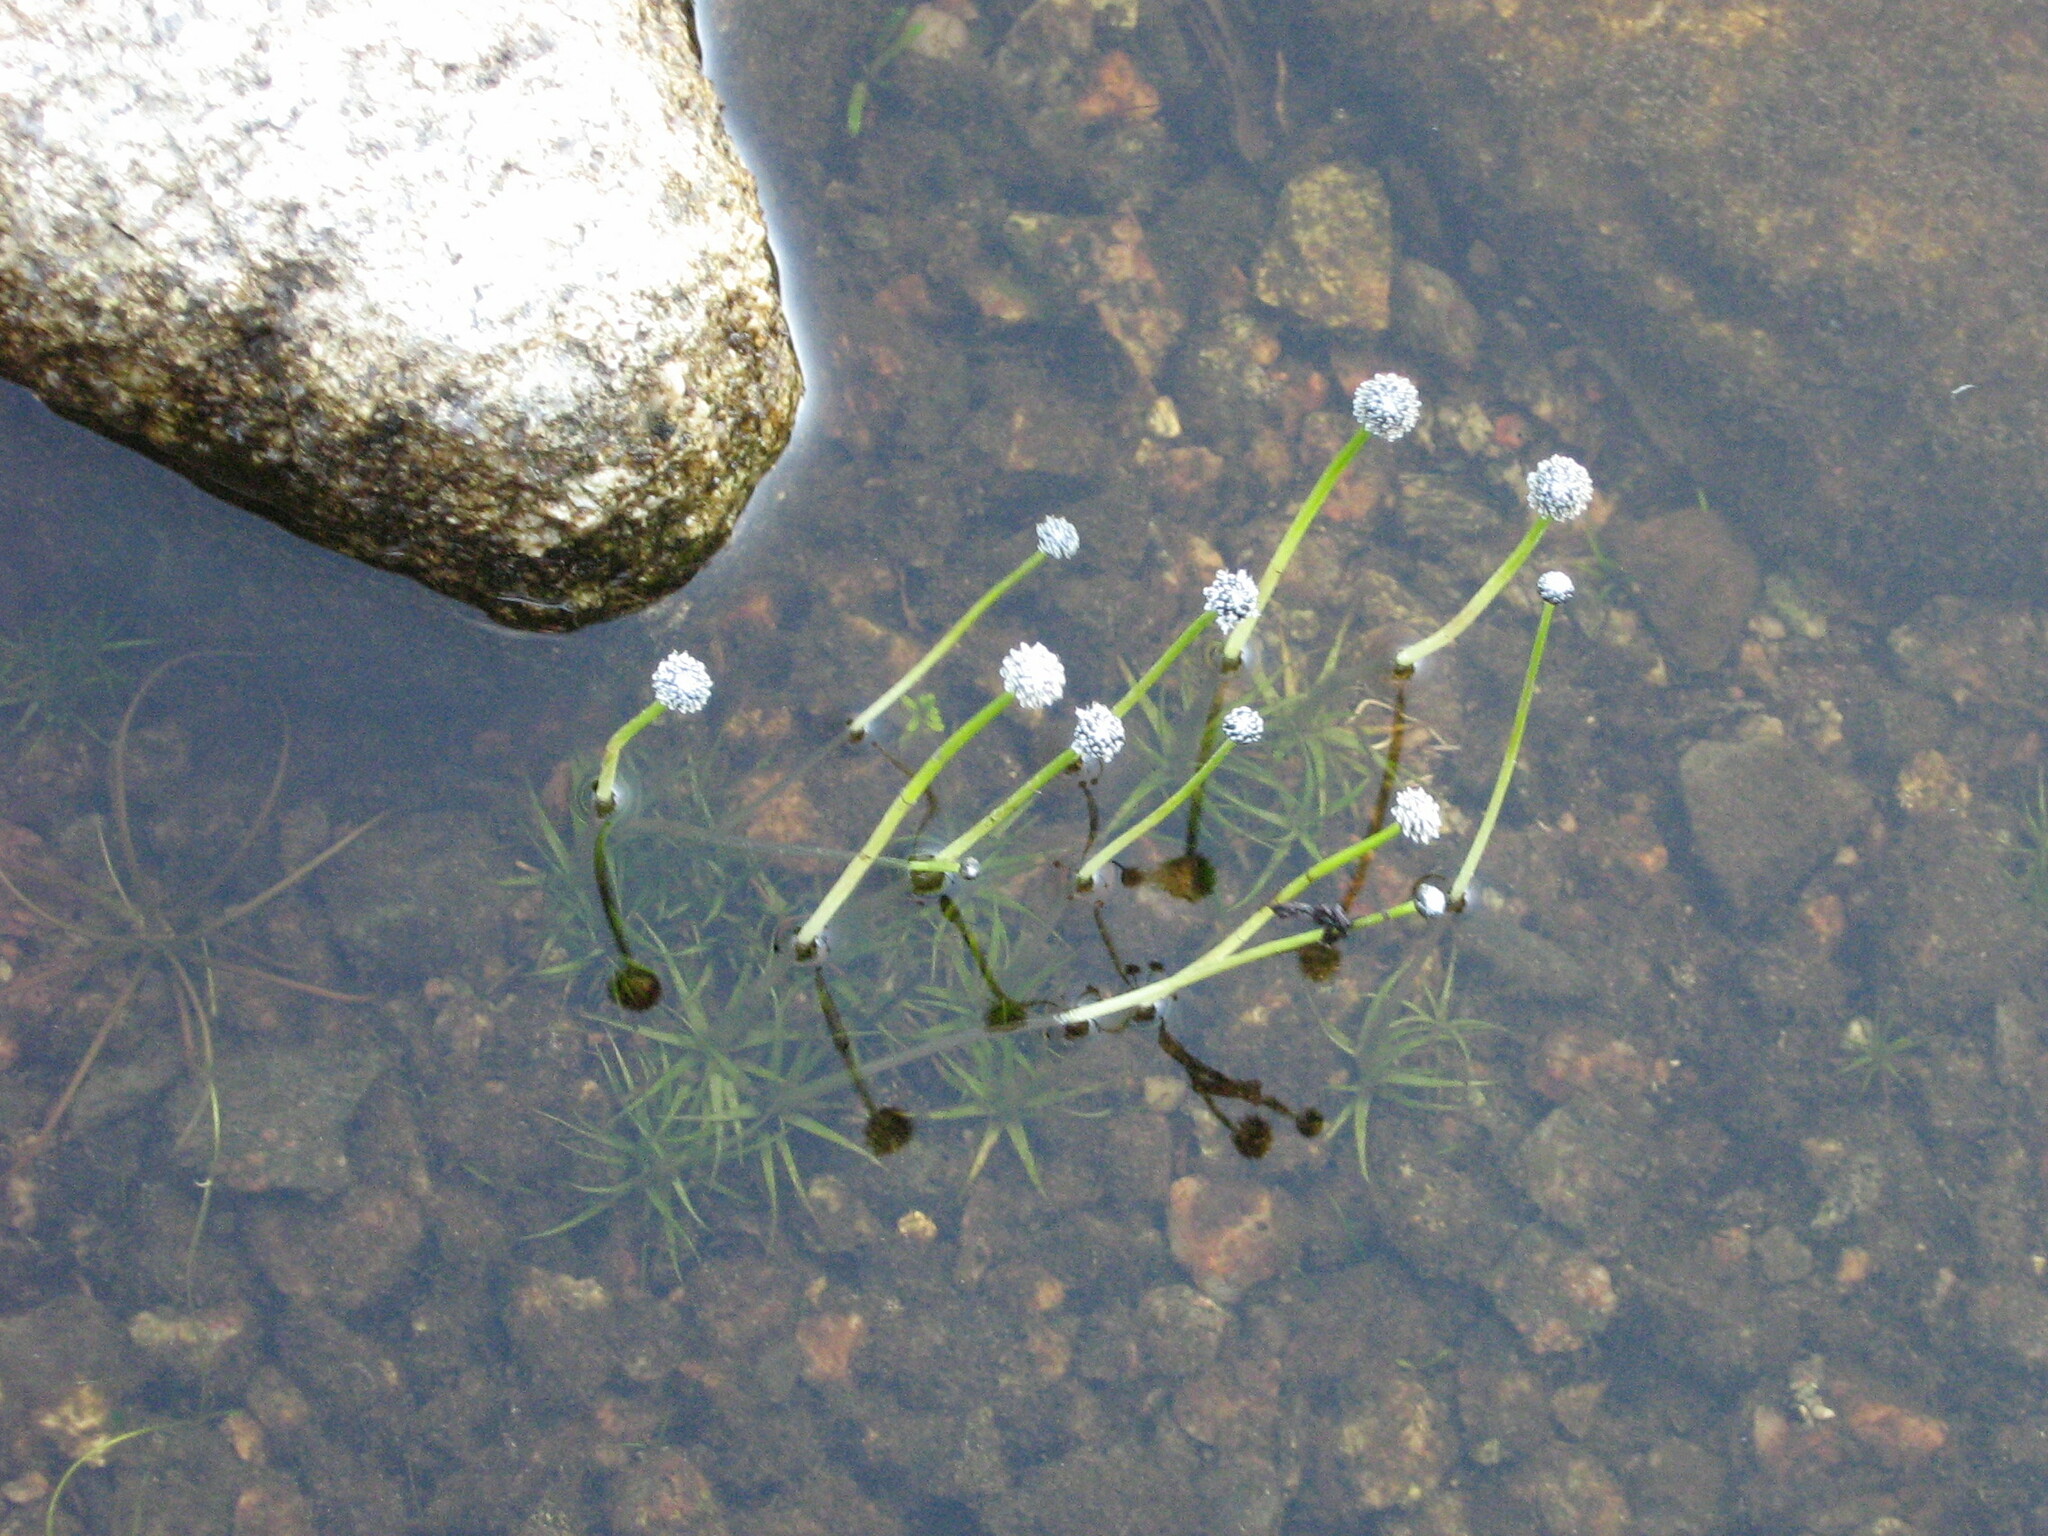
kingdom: Plantae
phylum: Tracheophyta
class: Liliopsida
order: Poales
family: Eriocaulaceae
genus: Eriocaulon
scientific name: Eriocaulon aquaticum
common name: Pipewort
